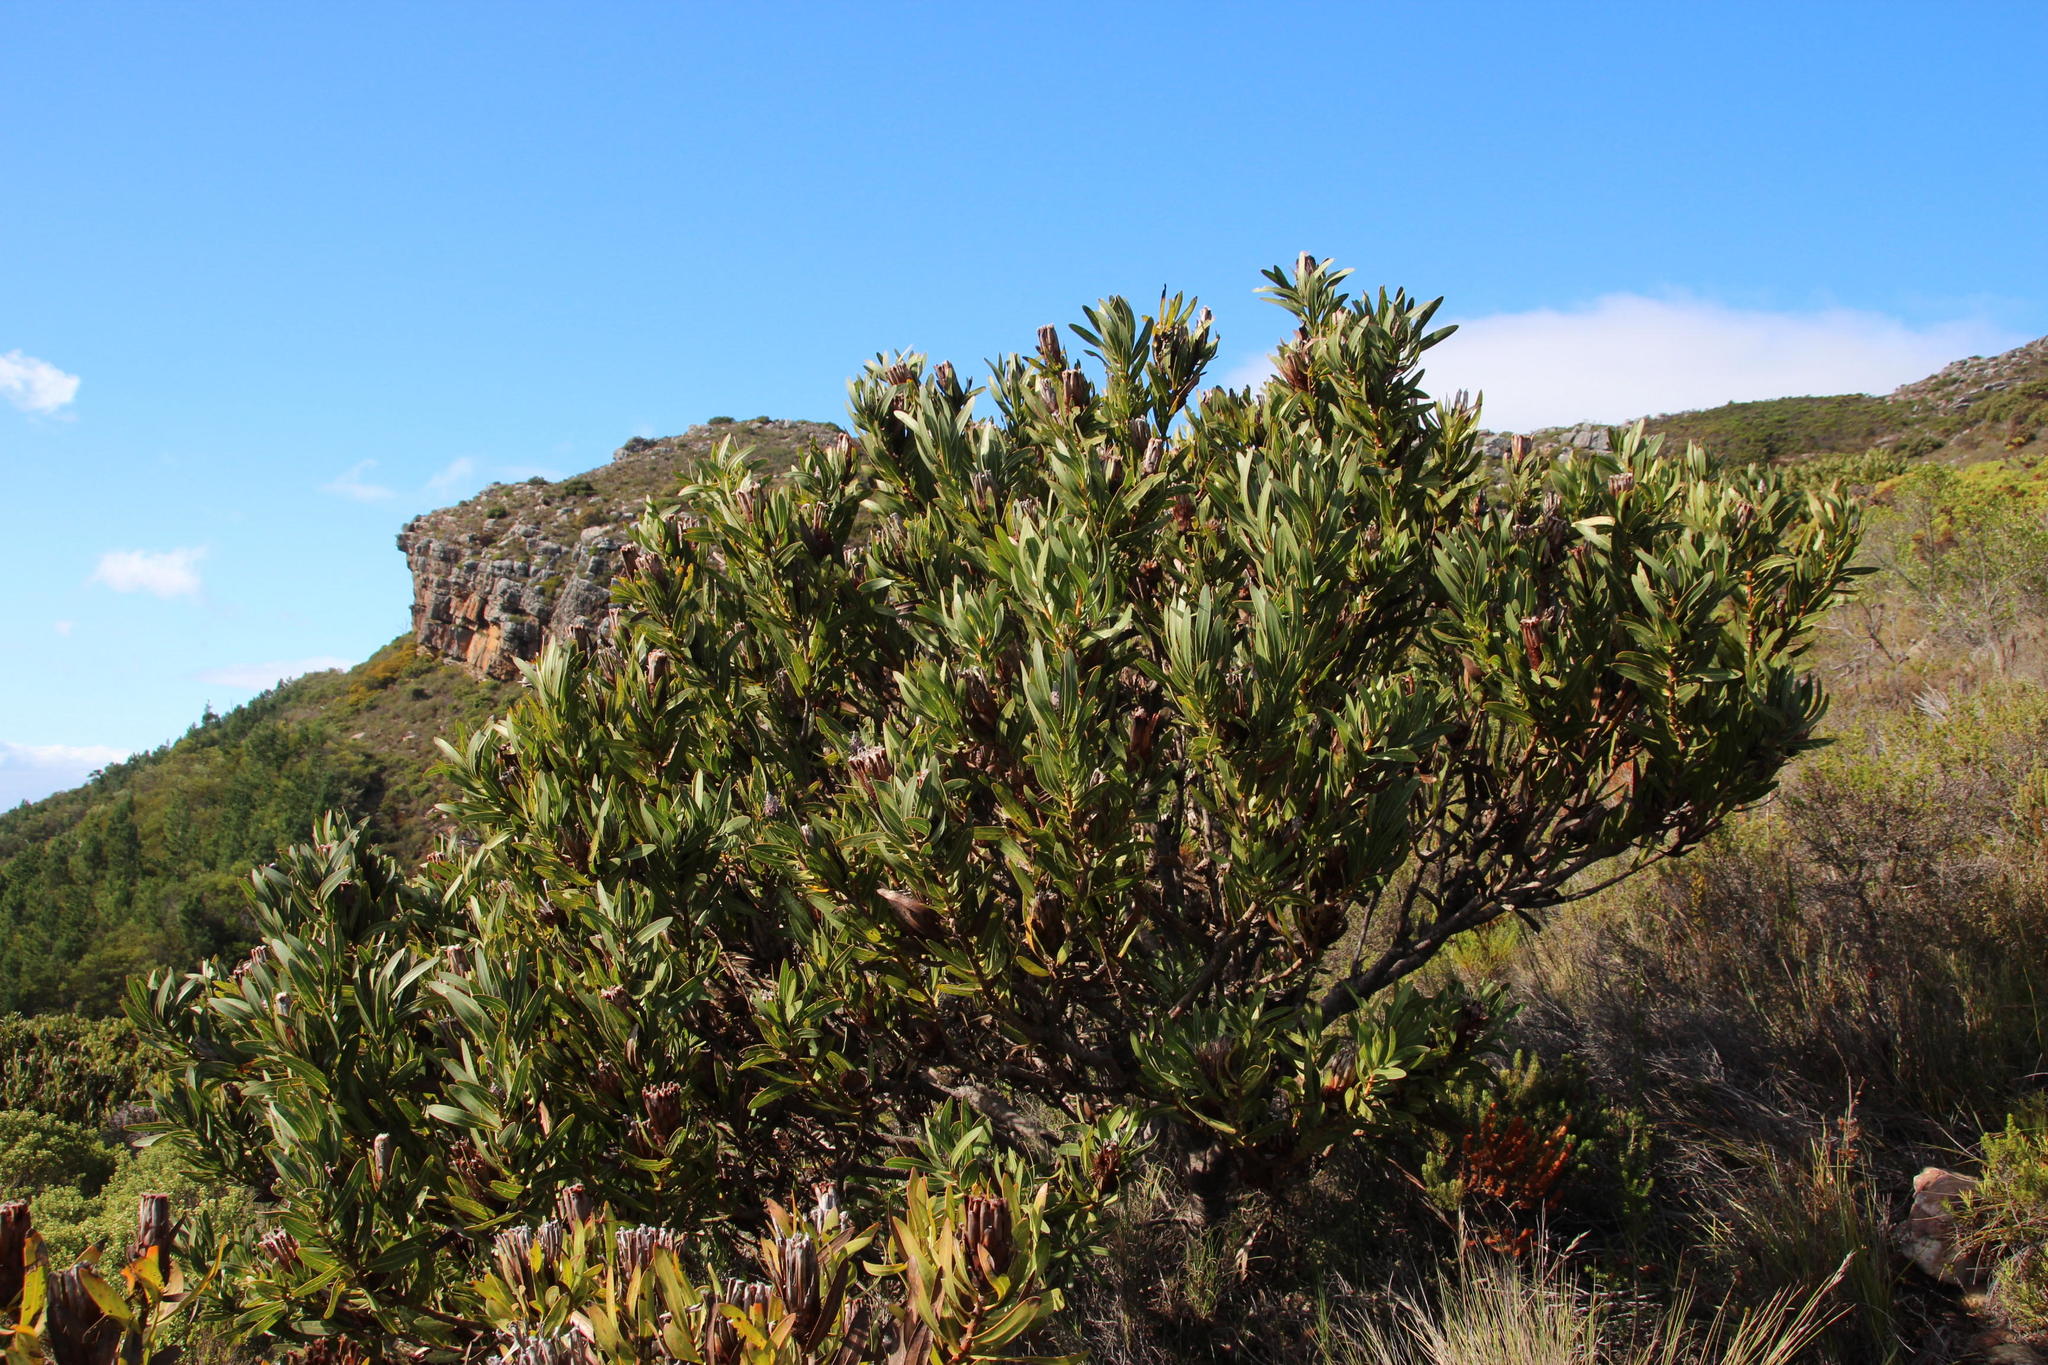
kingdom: Plantae
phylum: Tracheophyta
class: Magnoliopsida
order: Proteales
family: Proteaceae
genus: Protea
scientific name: Protea lepidocarpodendron
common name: Black-bearded protea
